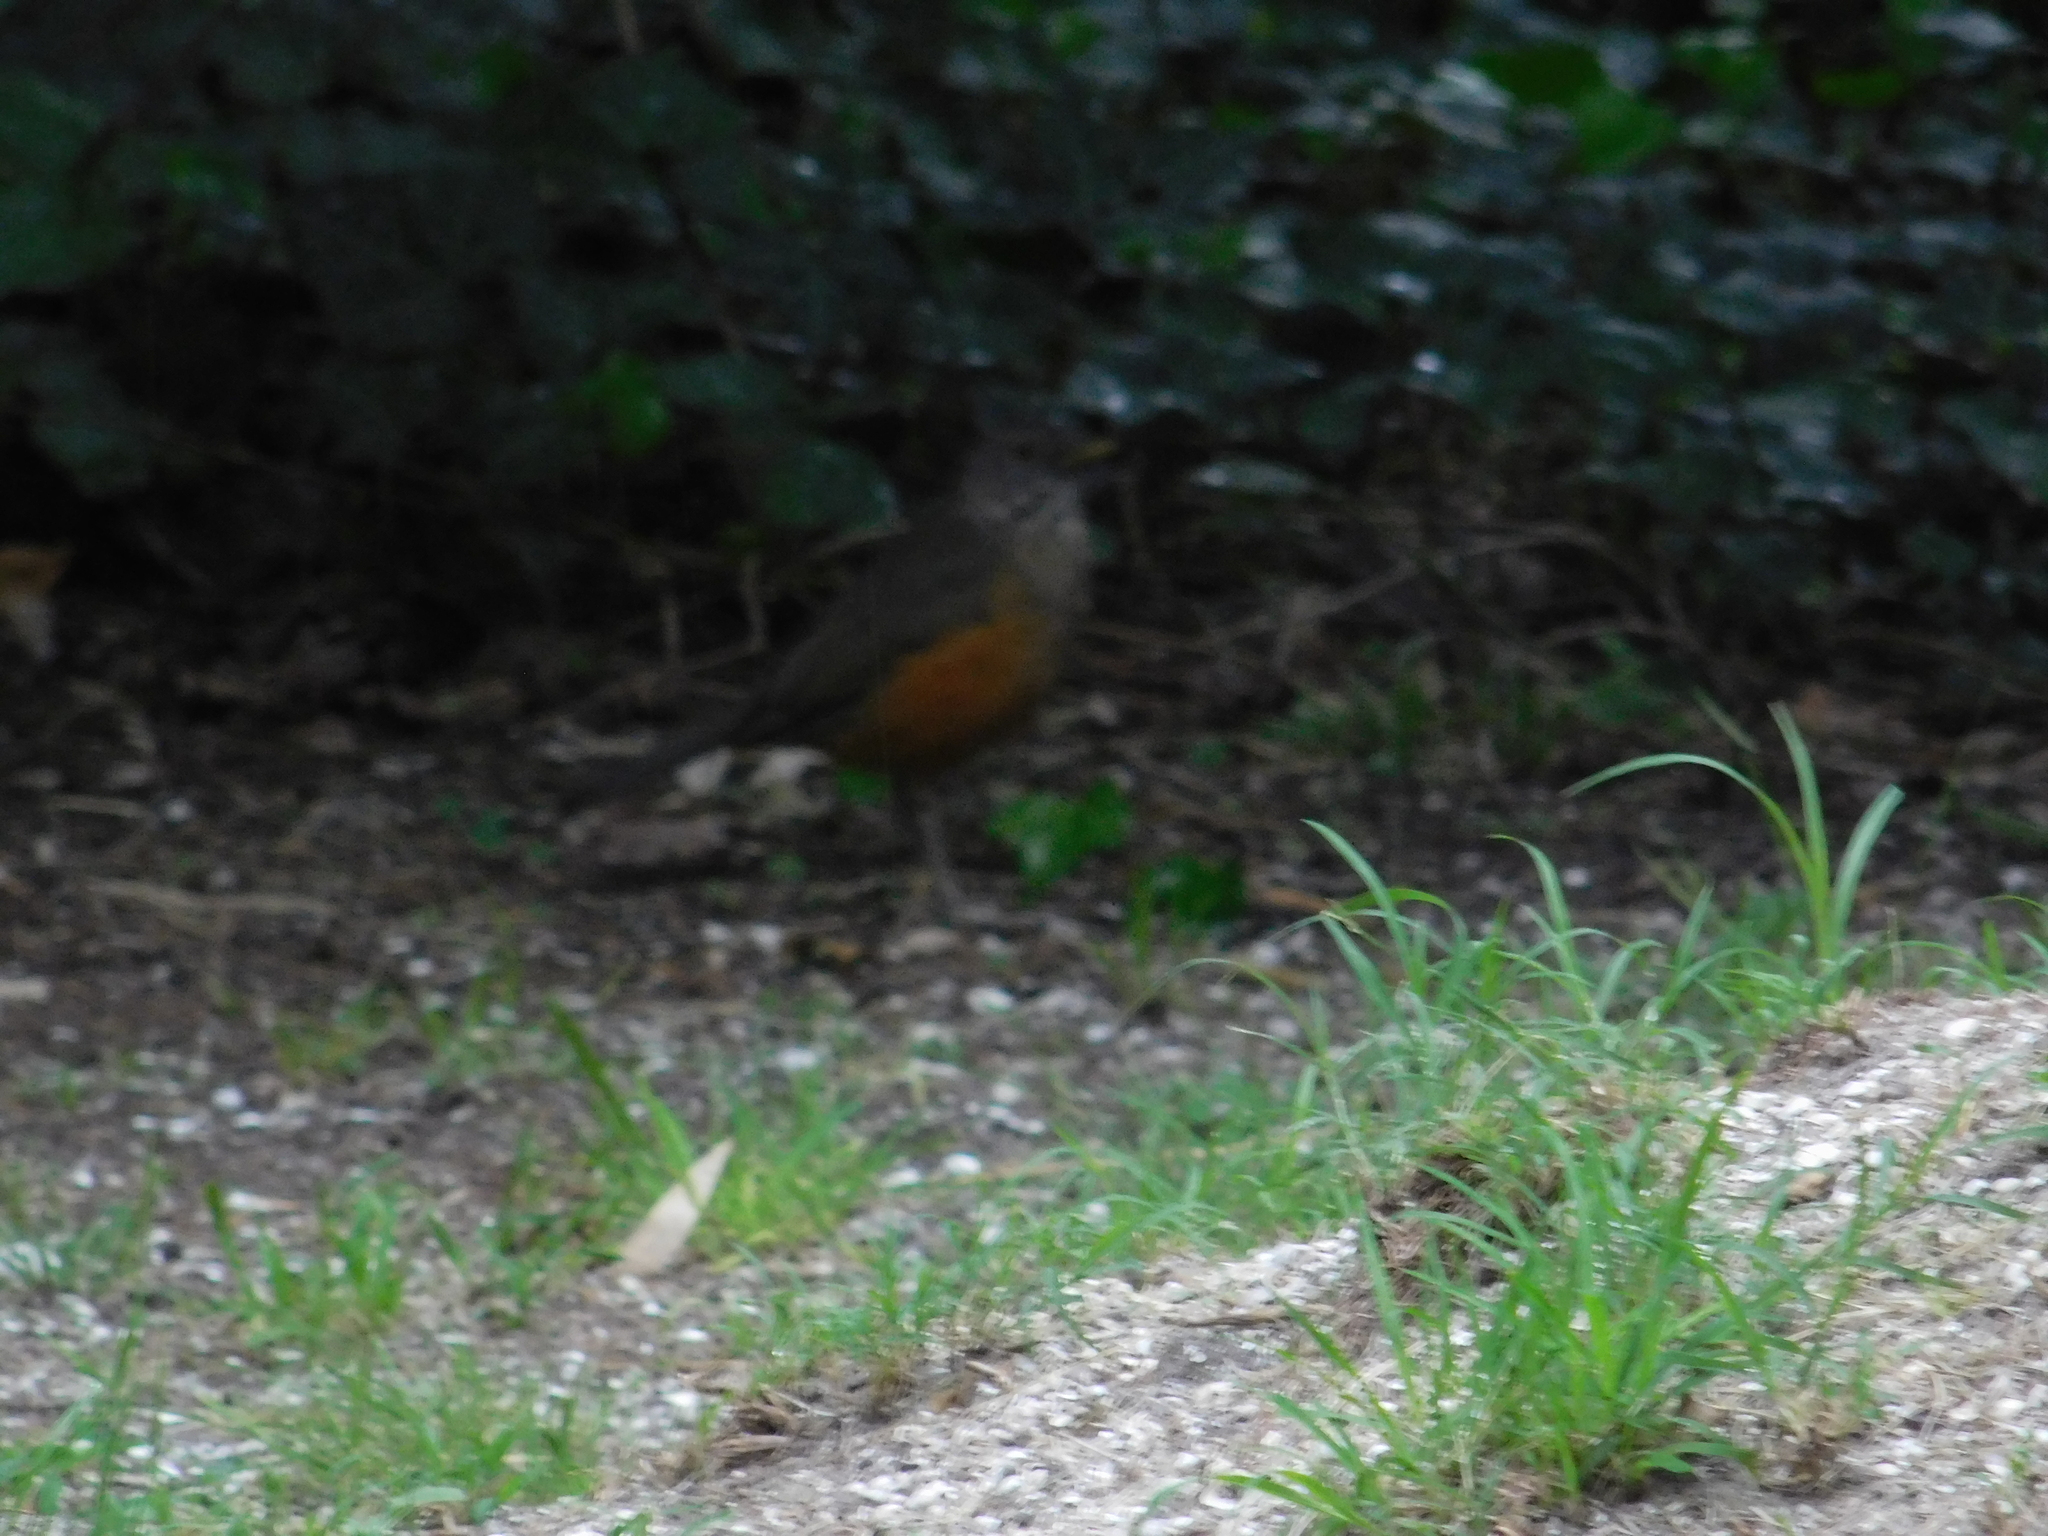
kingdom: Animalia
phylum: Chordata
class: Aves
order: Passeriformes
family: Turdidae
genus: Turdus
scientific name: Turdus rufiventris
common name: Rufous-bellied thrush
